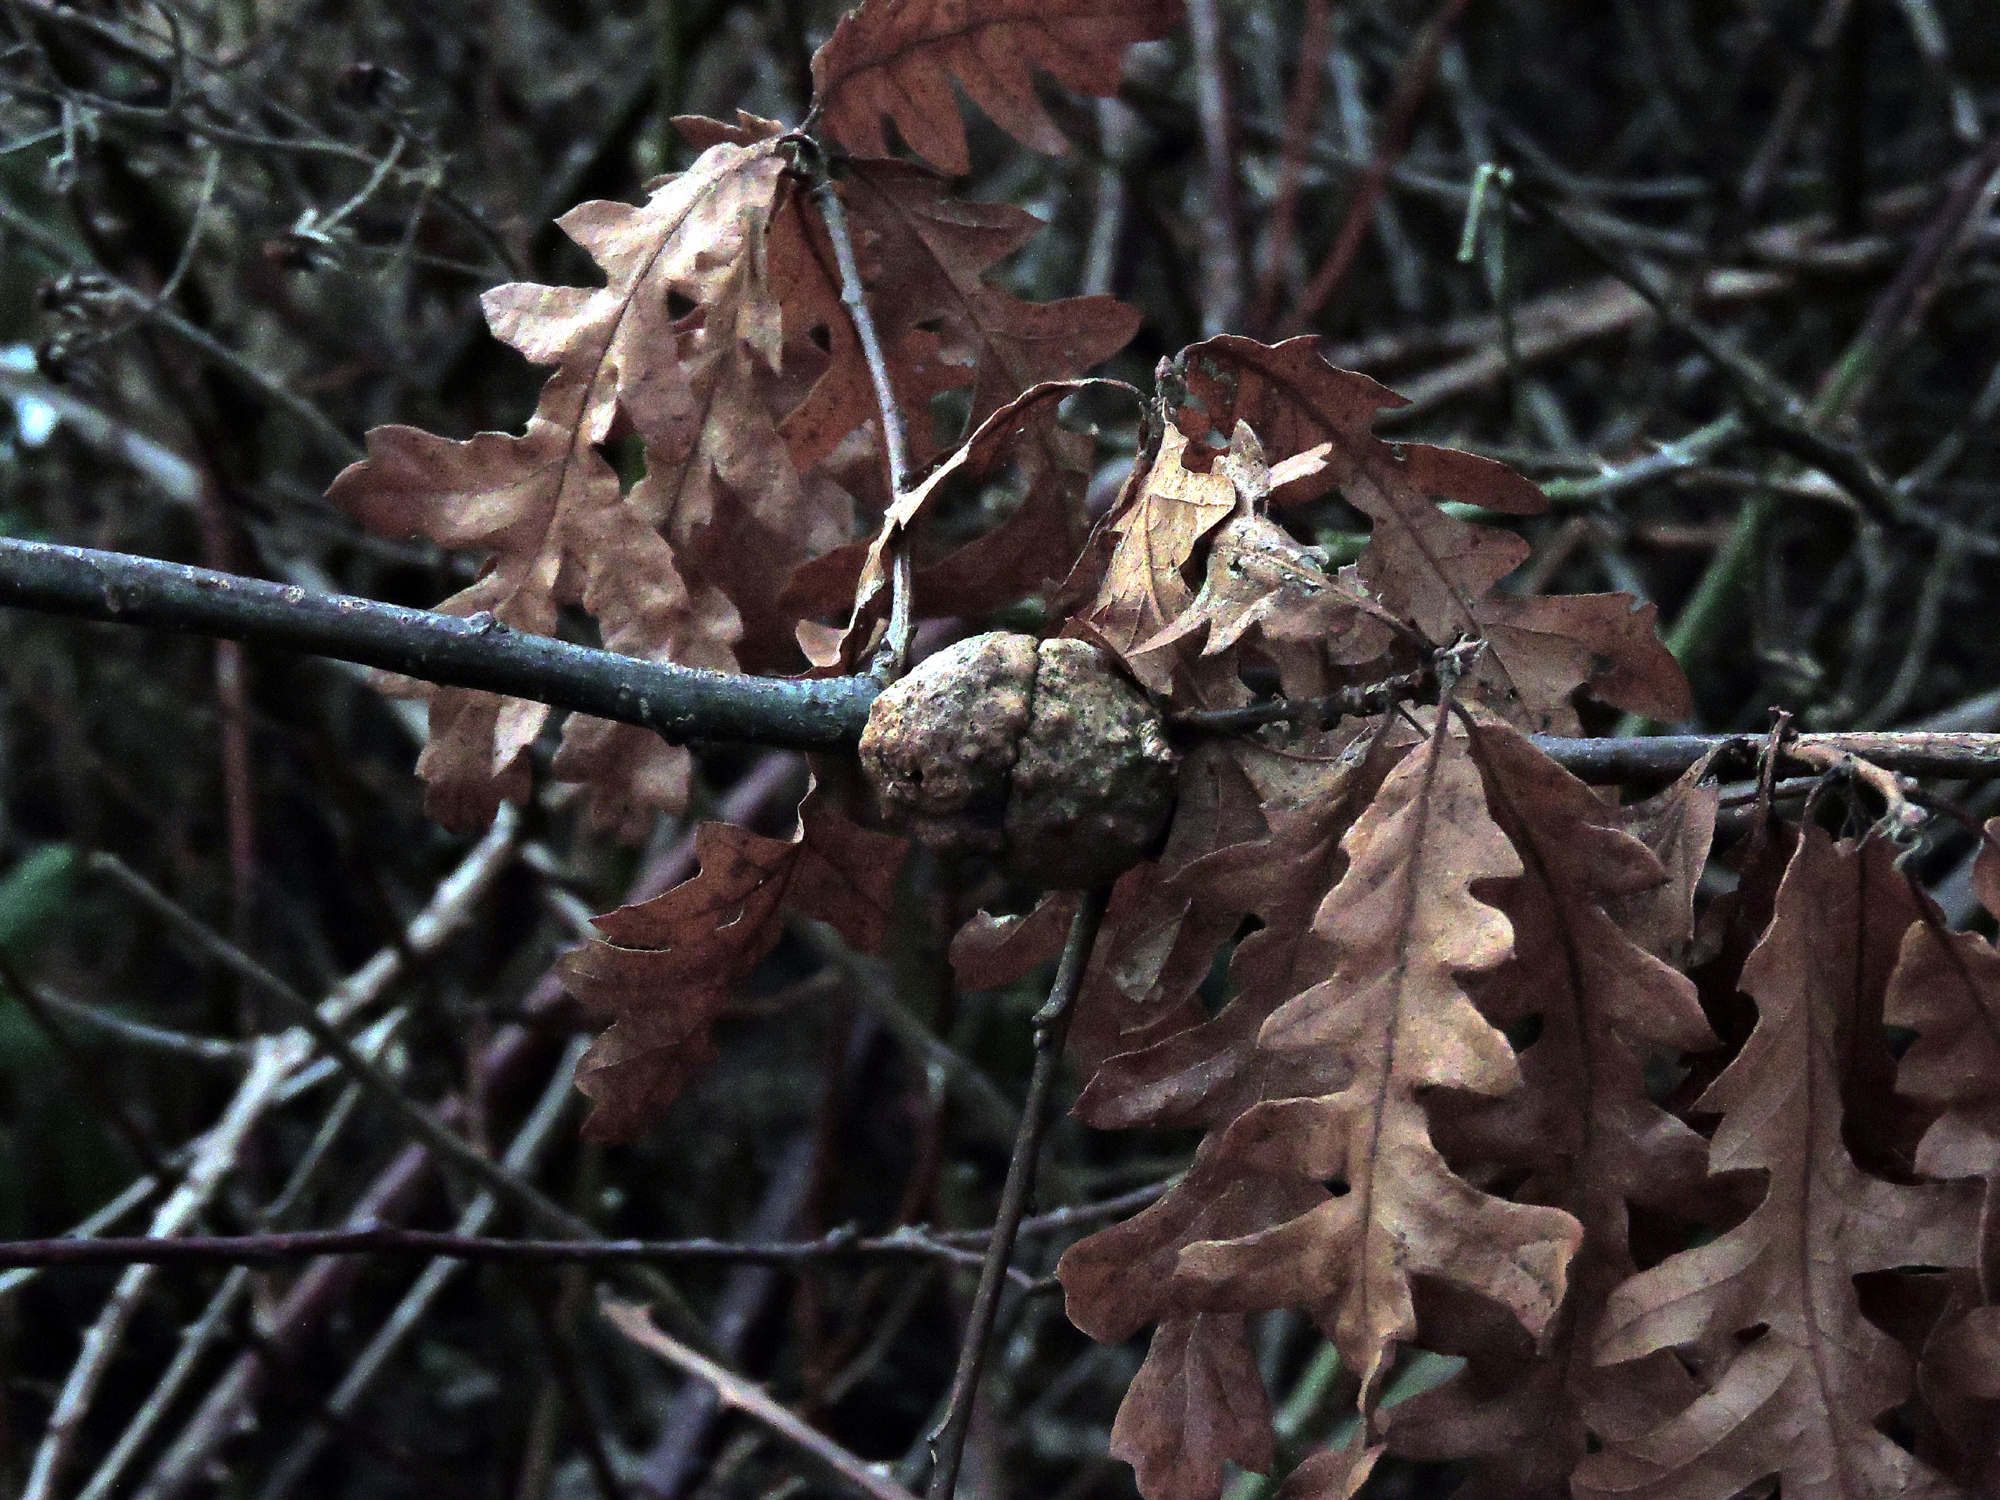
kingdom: Animalia
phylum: Arthropoda
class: Insecta
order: Hymenoptera
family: Cynipidae
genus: Aphelonyx
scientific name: Aphelonyx cerricola
